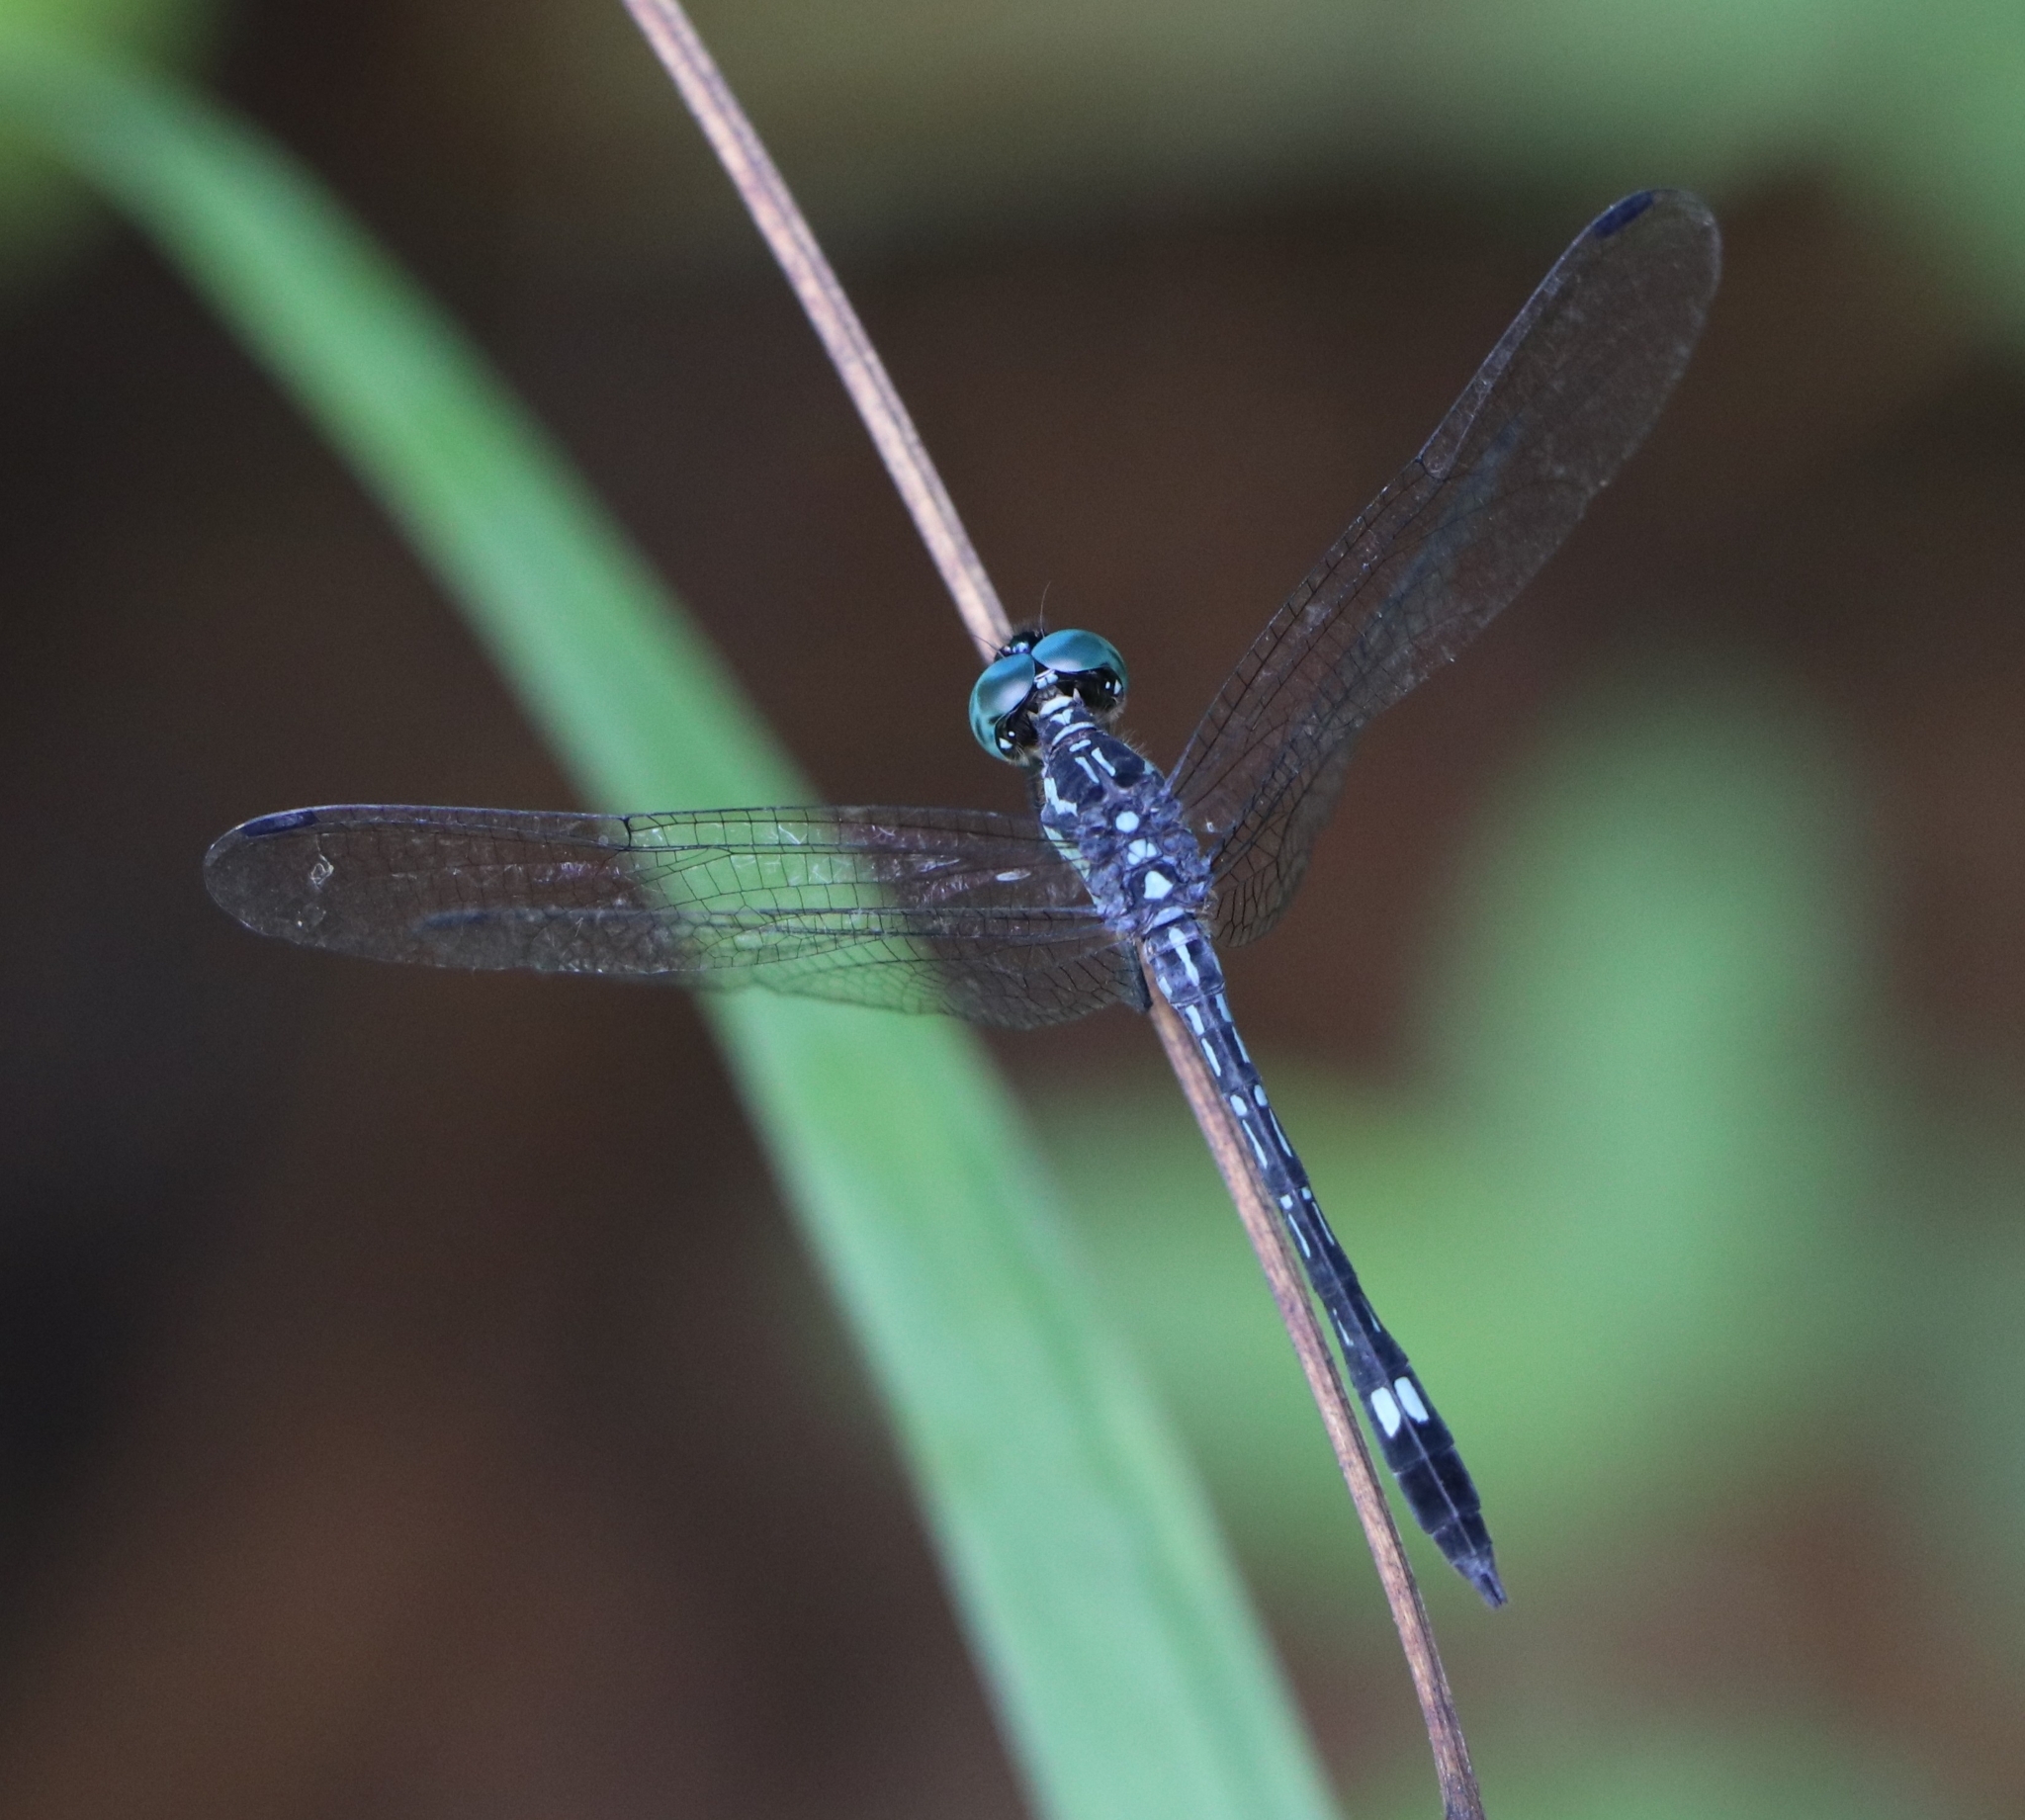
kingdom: Animalia
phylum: Arthropoda
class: Insecta
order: Odonata
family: Libellulidae
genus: Hylaeothemis
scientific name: Hylaeothemis apicalis
